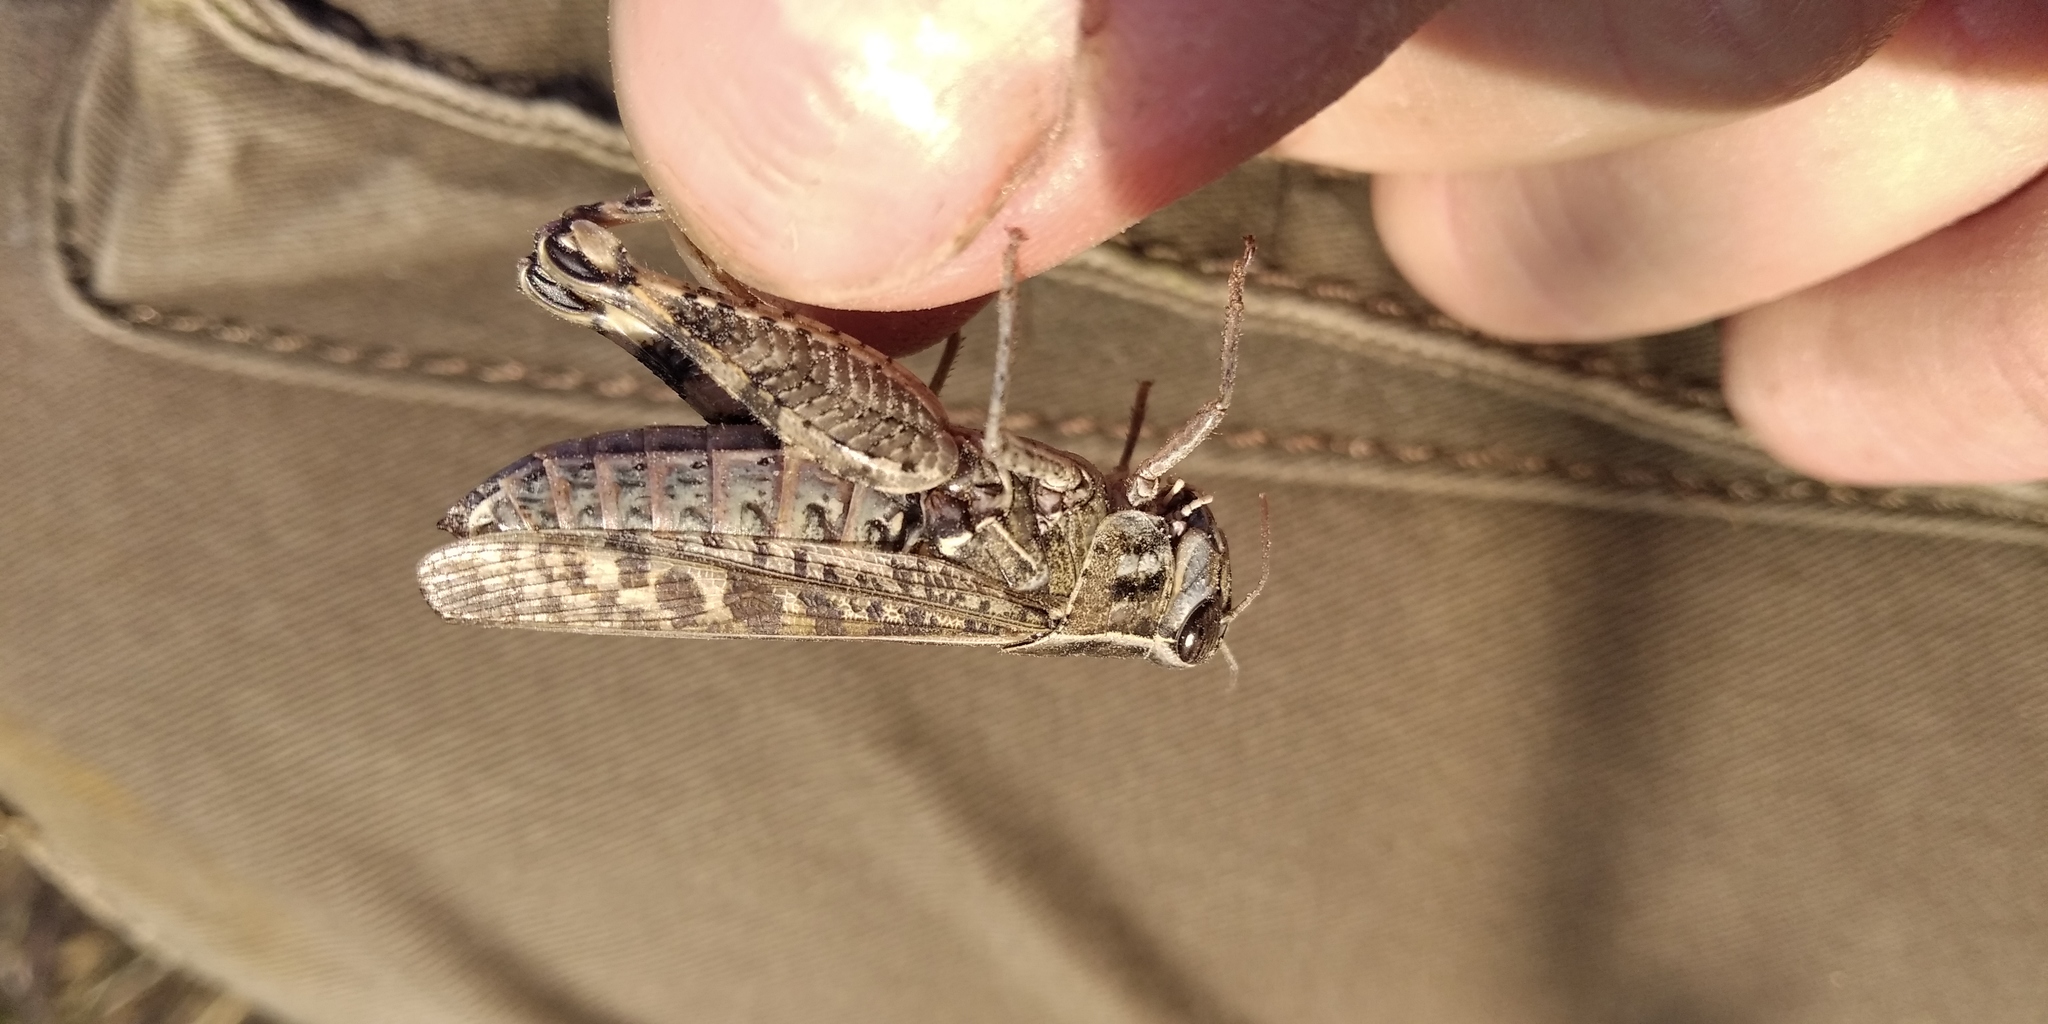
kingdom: Animalia
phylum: Arthropoda
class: Insecta
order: Orthoptera
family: Acrididae
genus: Calliptamus
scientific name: Calliptamus italicus
